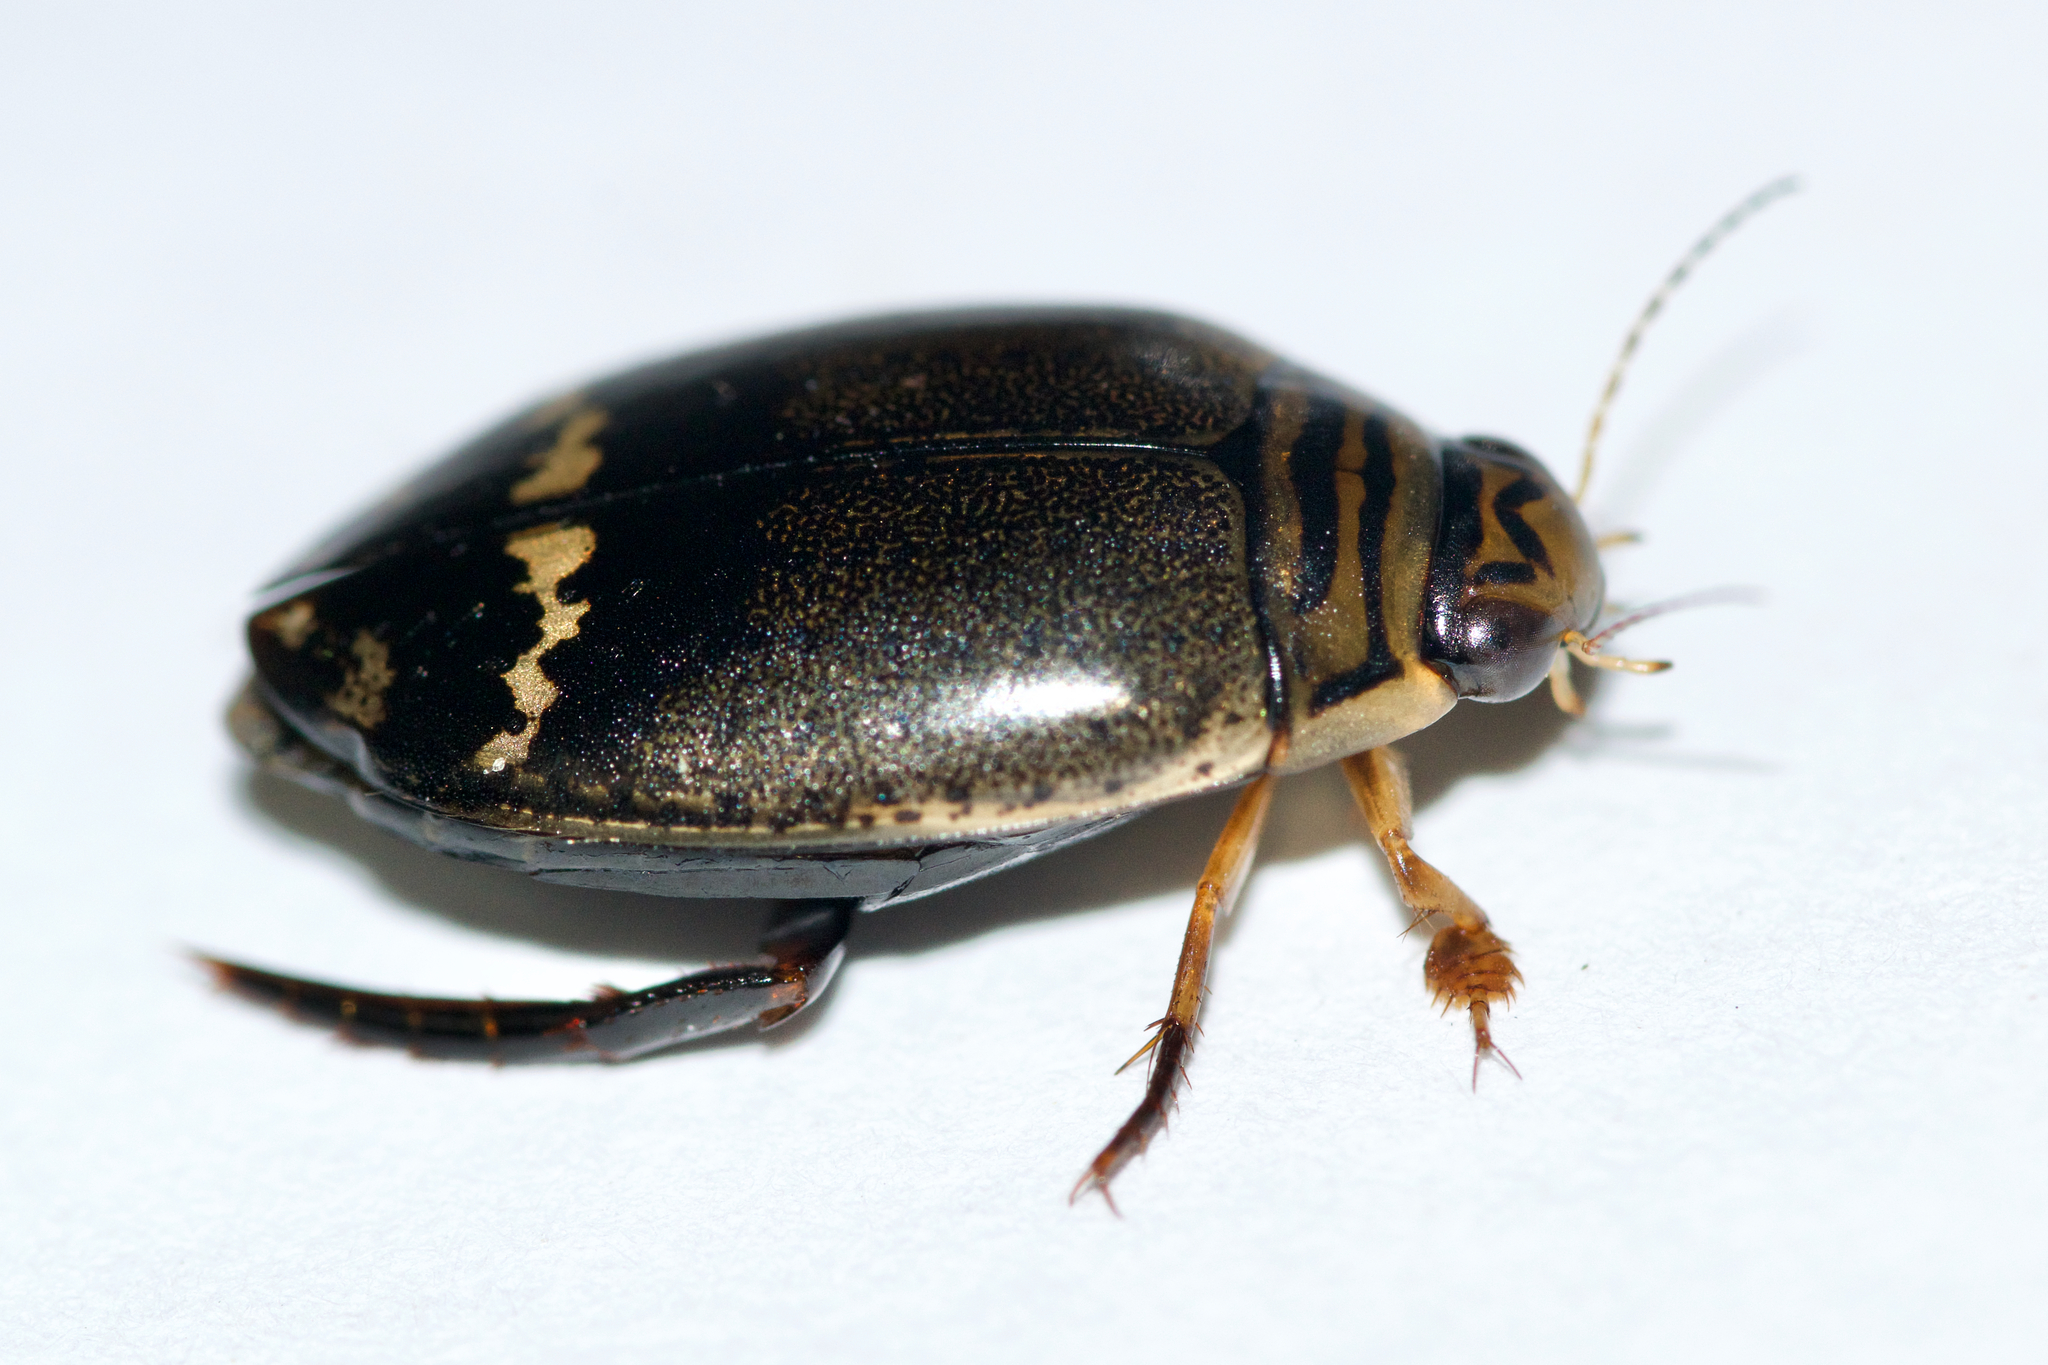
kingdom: Animalia
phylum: Arthropoda
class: Insecta
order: Coleoptera
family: Dytiscidae
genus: Acilius
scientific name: Acilius mediatus
